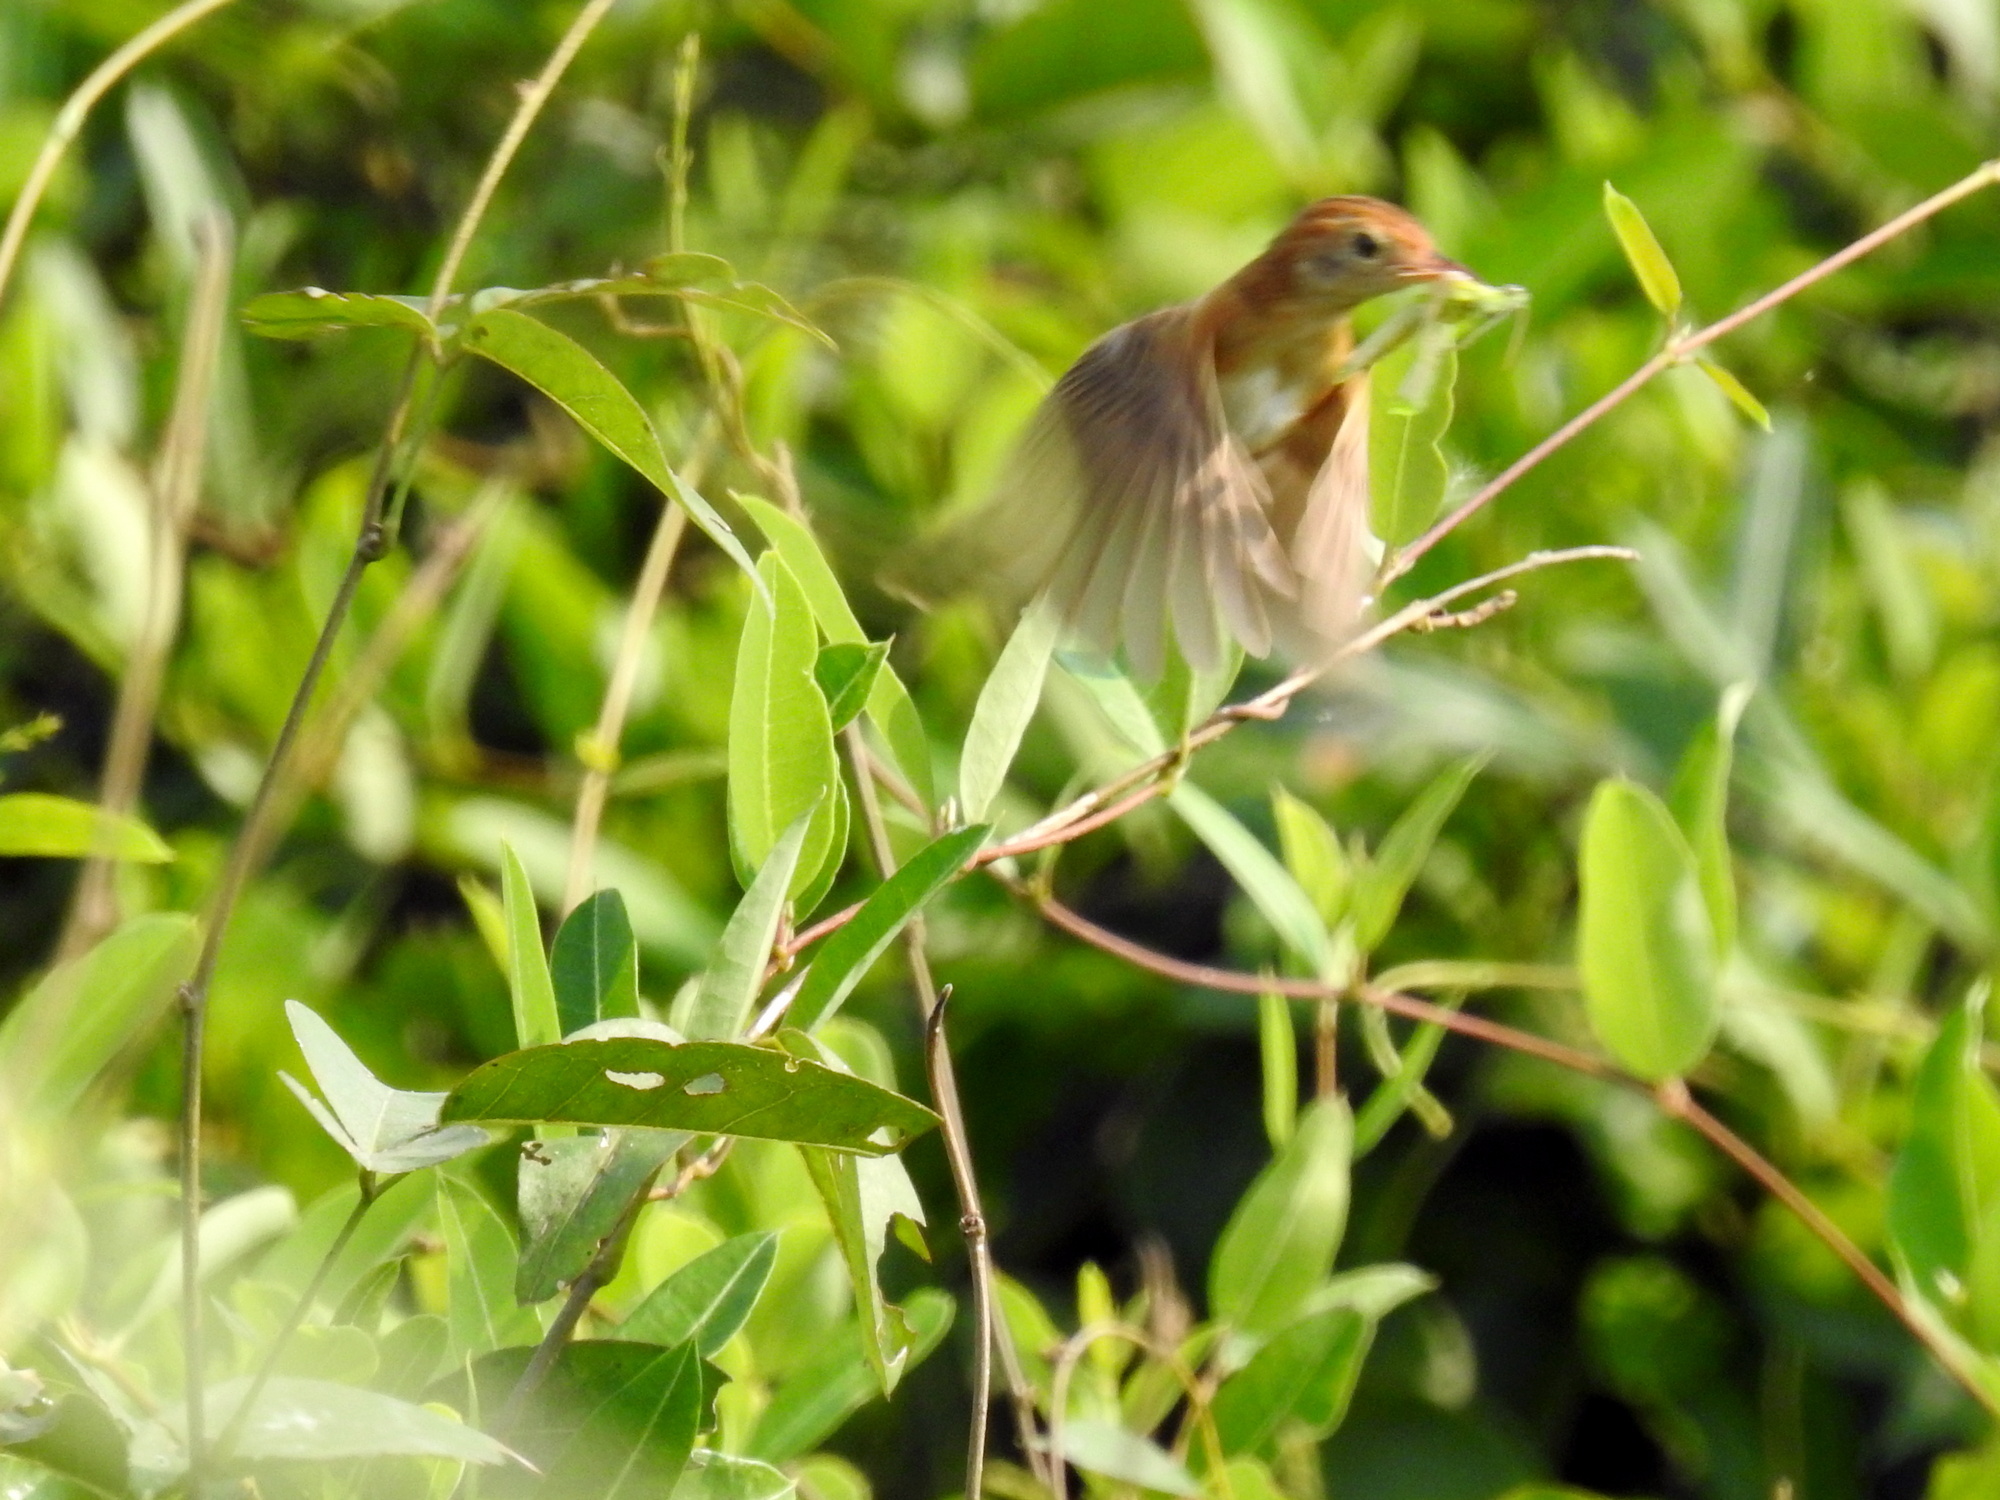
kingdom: Animalia
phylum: Chordata
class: Aves
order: Passeriformes
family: Cisticolidae
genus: Cisticola
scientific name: Cisticola exilis
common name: Golden-headed cisticola
